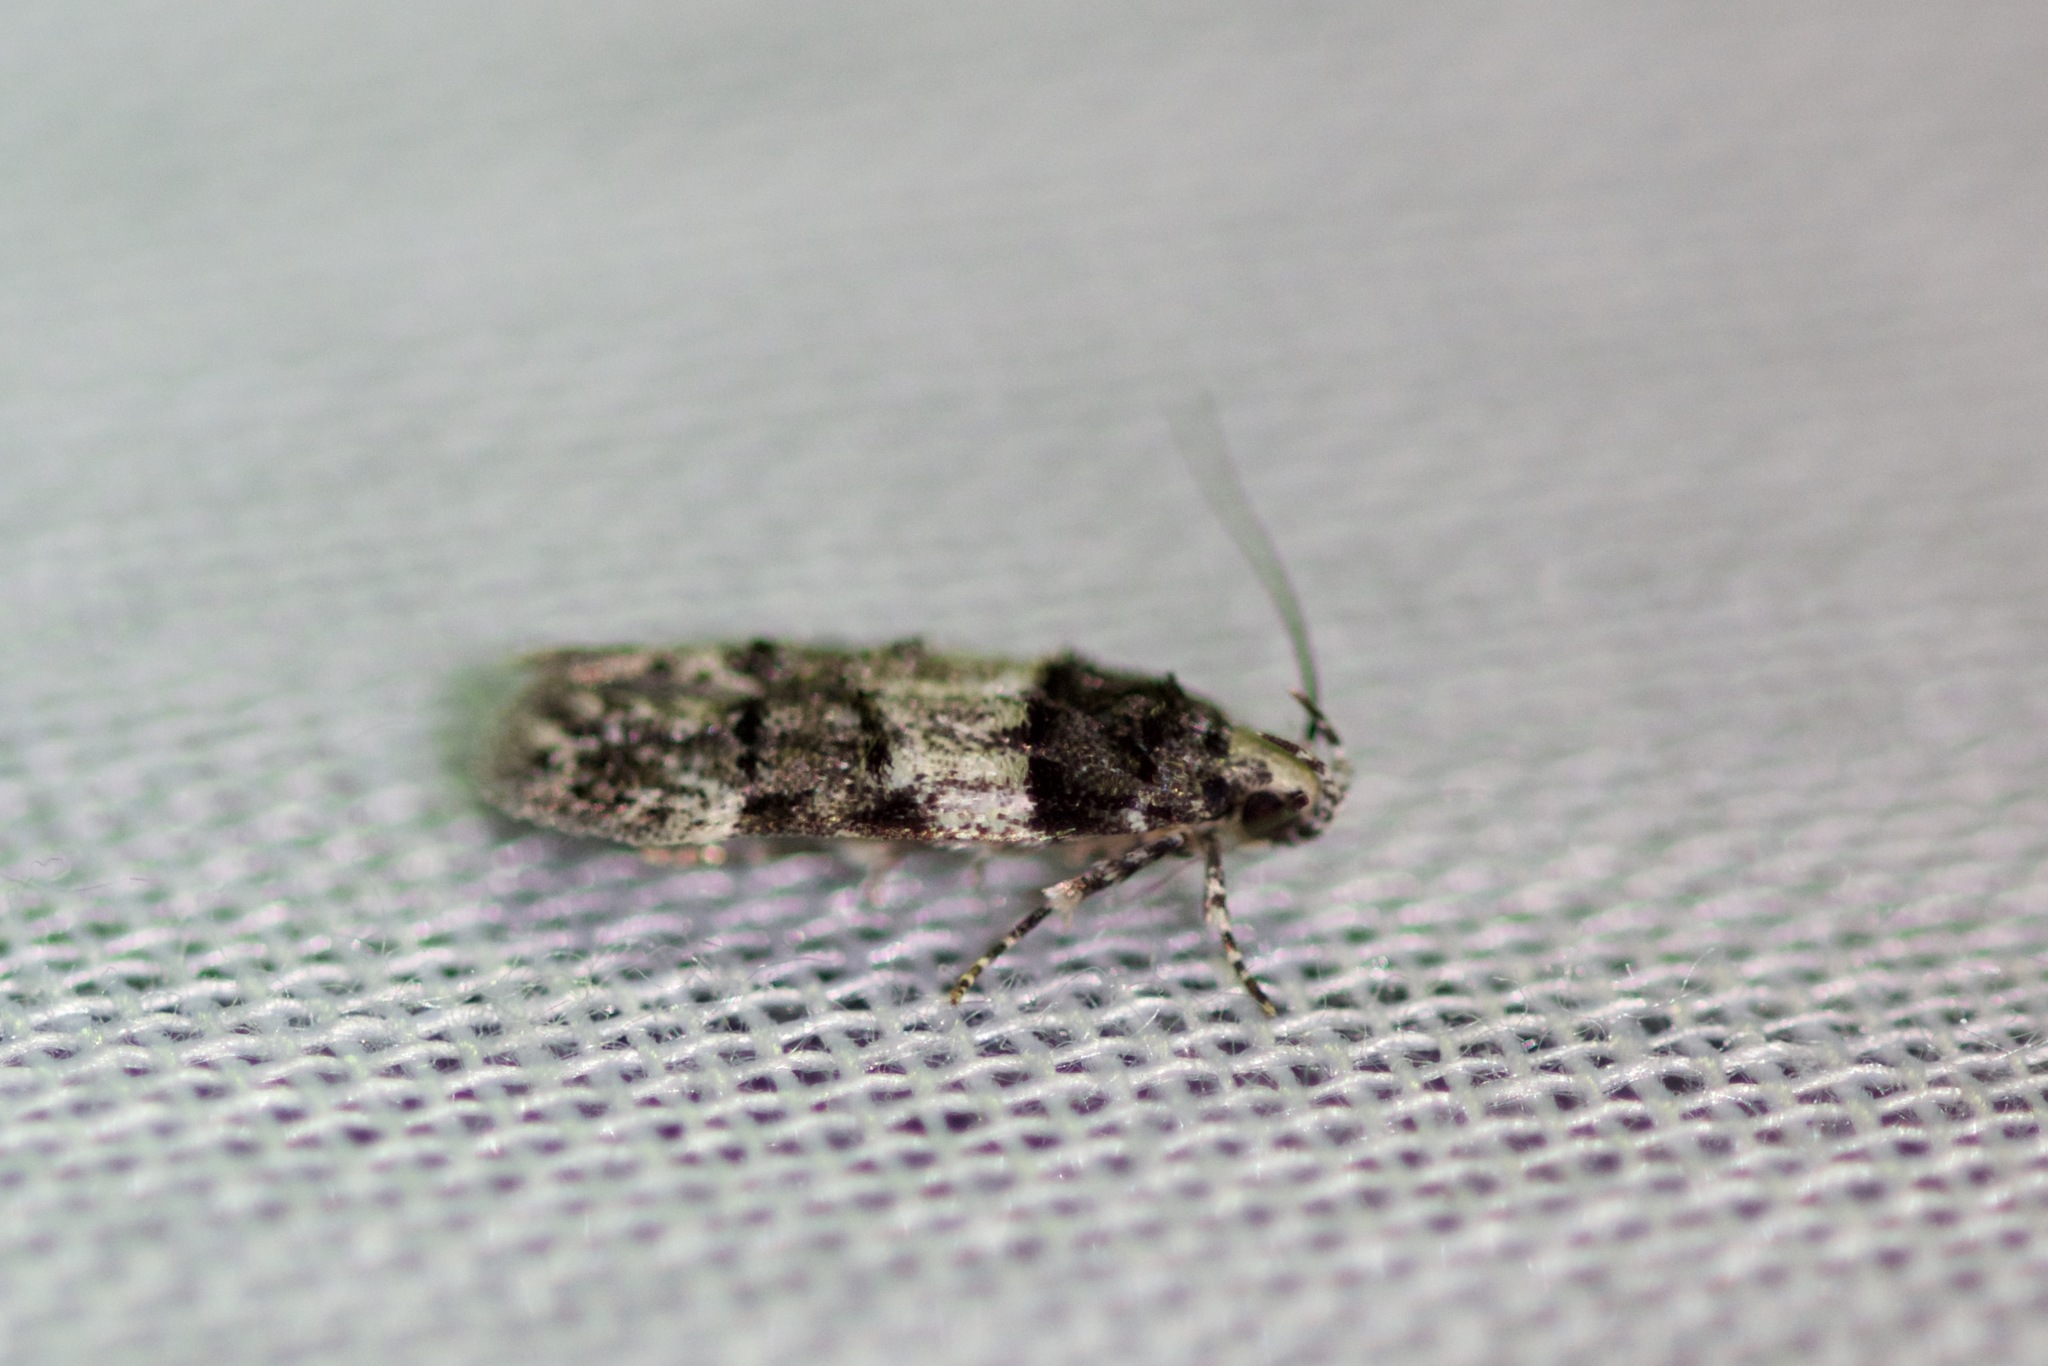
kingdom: Animalia
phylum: Arthropoda
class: Insecta
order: Lepidoptera
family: Gelechiidae
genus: Pubitelphusa
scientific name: Pubitelphusa latifasciella
